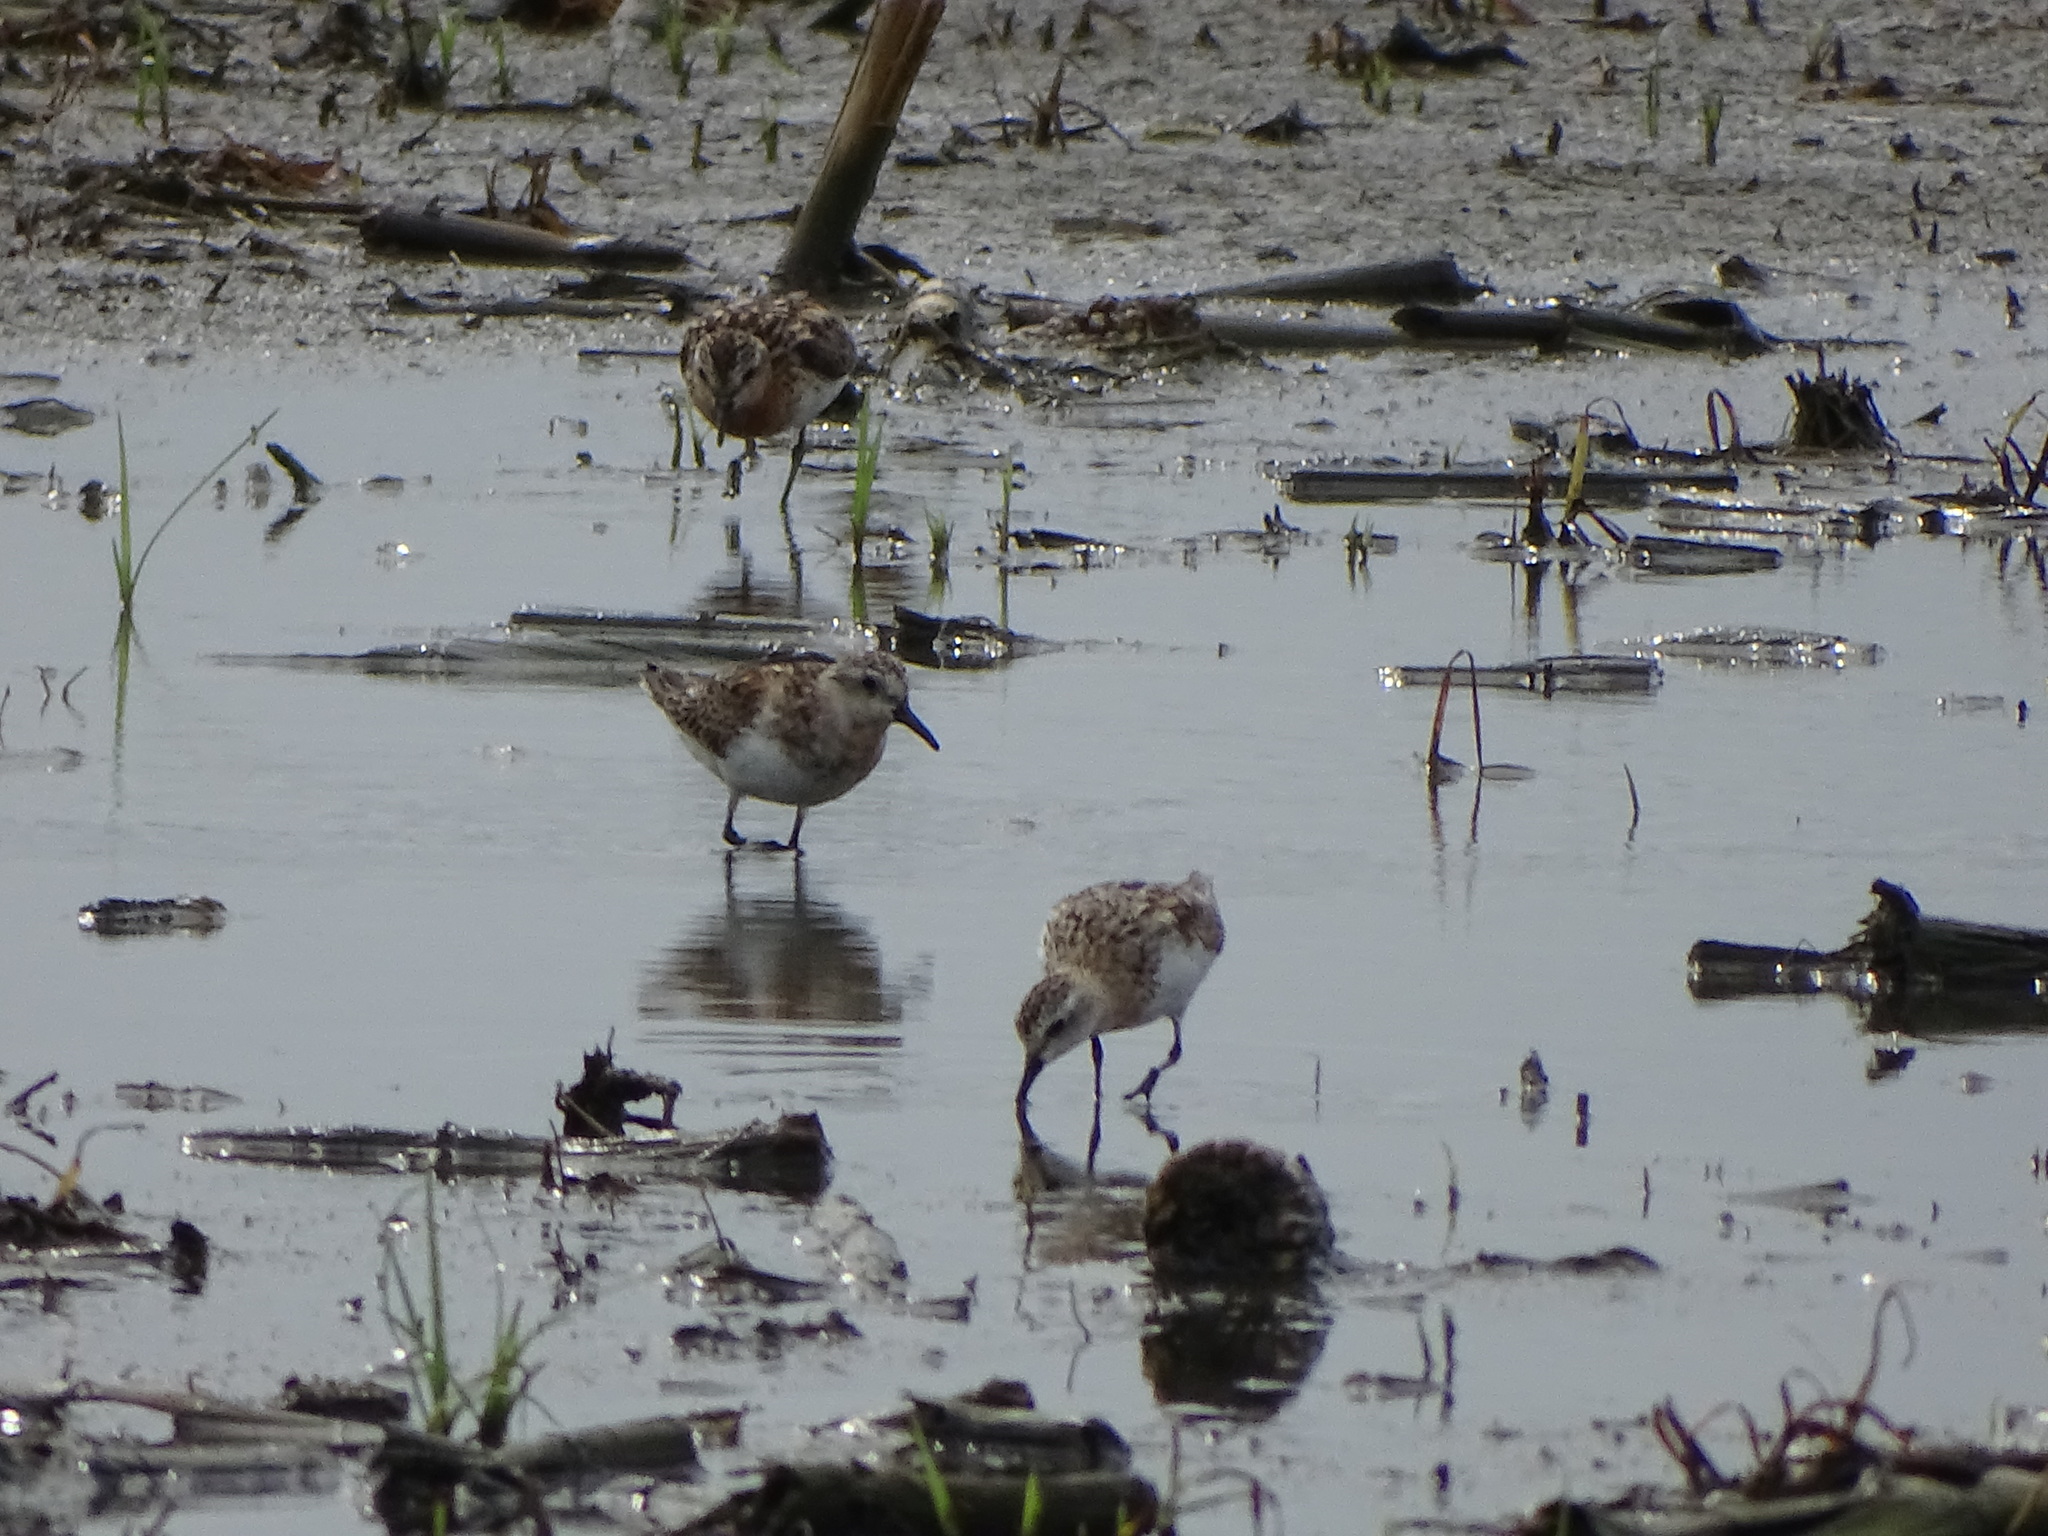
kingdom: Animalia
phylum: Chordata
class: Aves
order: Charadriiformes
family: Scolopacidae
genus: Calidris
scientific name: Calidris ruficollis
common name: Red-necked stint
